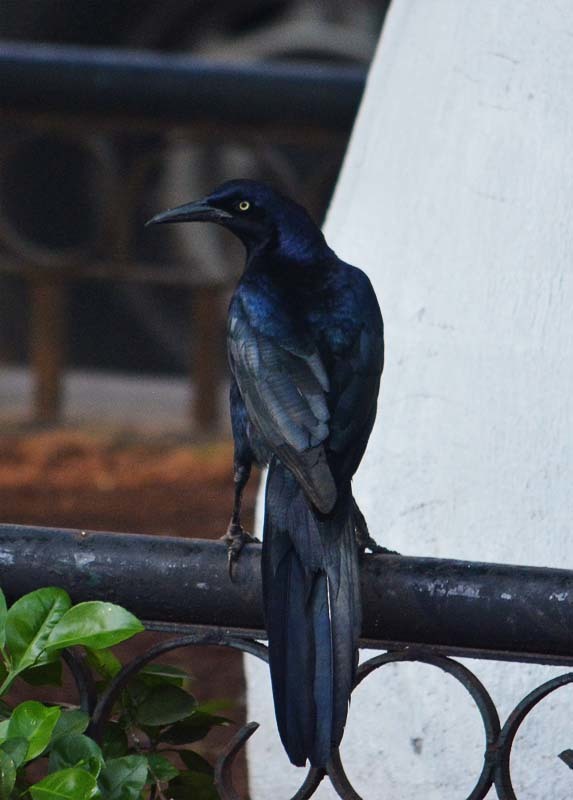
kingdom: Animalia
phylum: Chordata
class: Aves
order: Passeriformes
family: Icteridae
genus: Quiscalus
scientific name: Quiscalus mexicanus
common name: Great-tailed grackle
